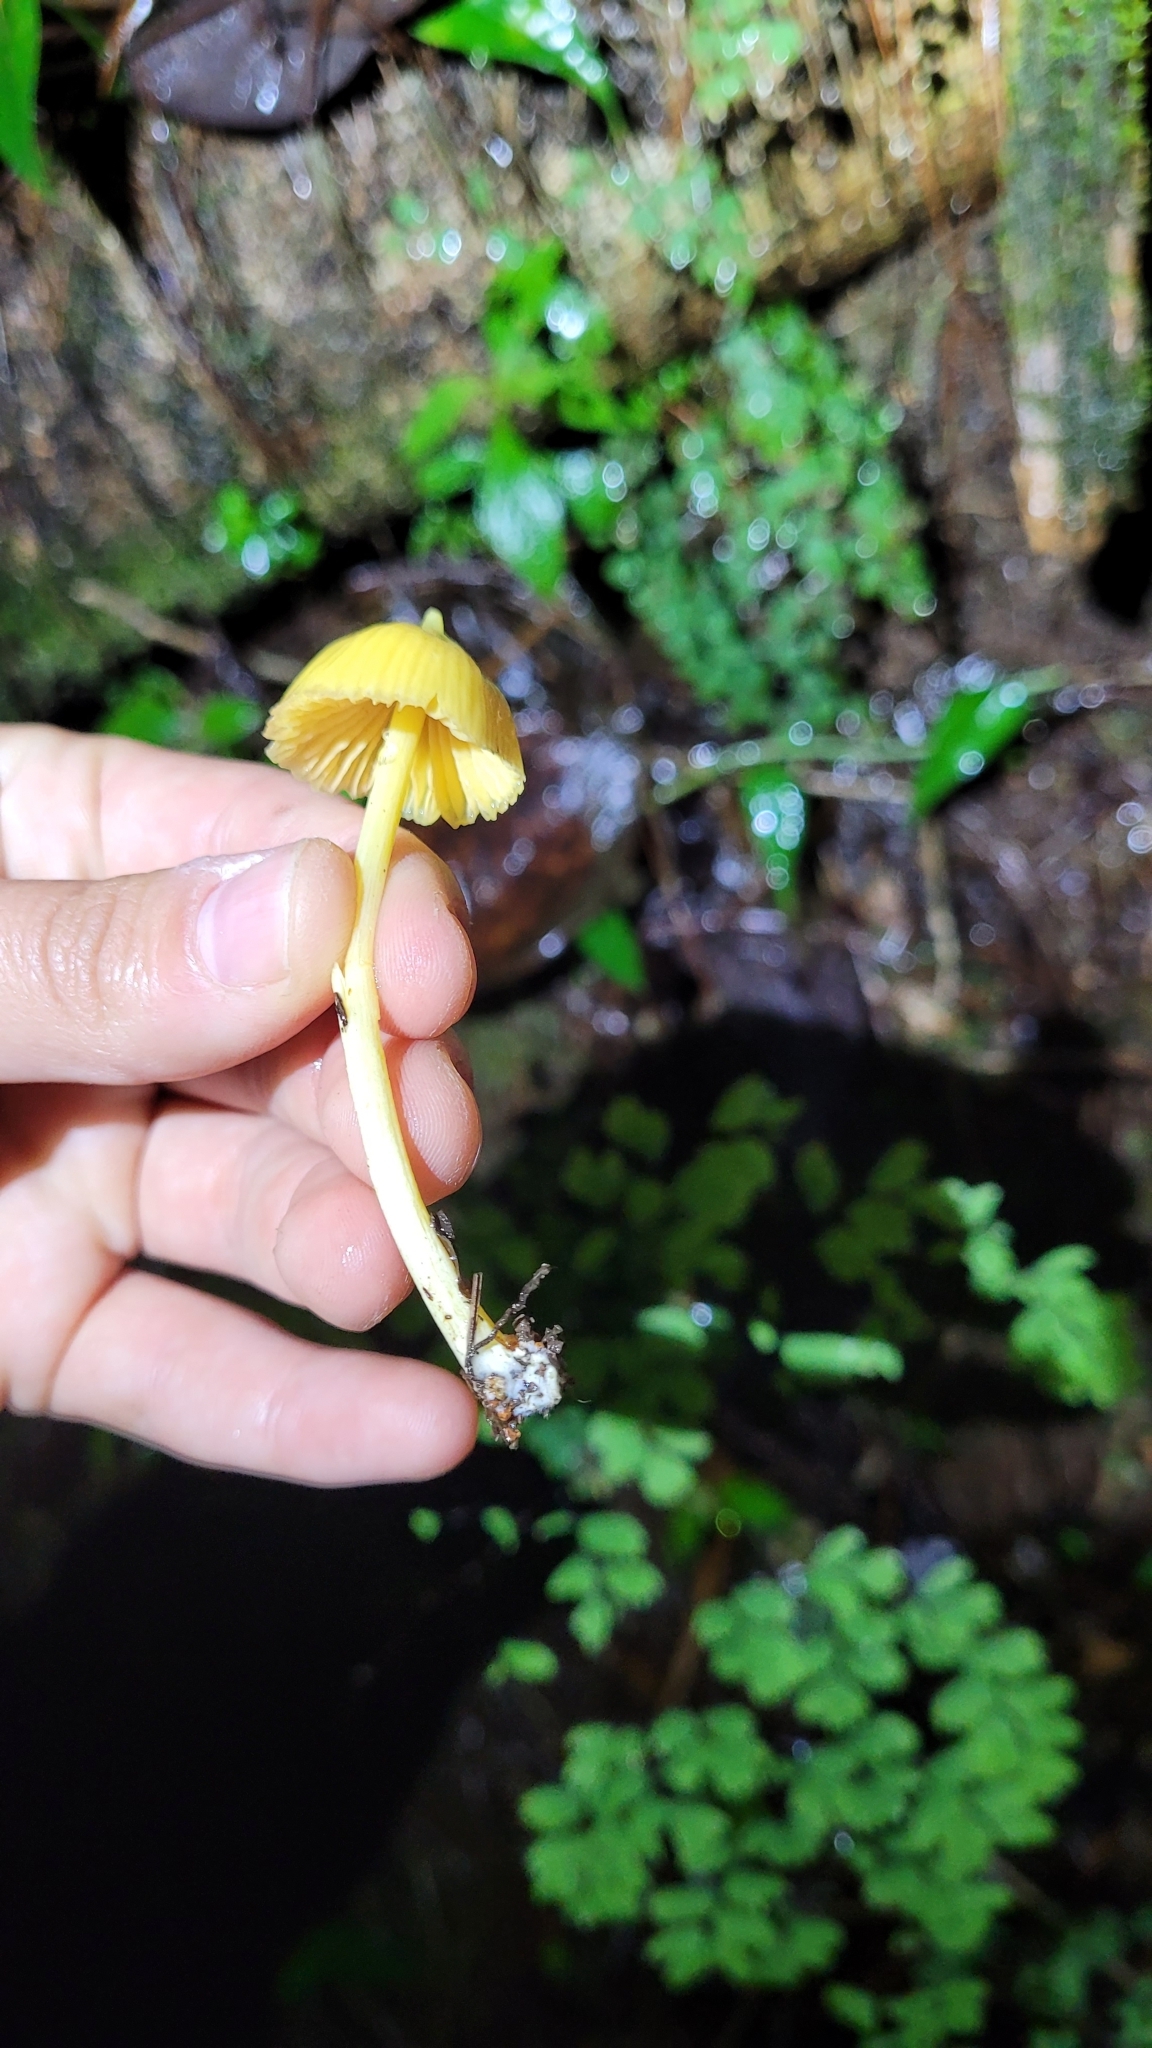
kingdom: Fungi
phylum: Basidiomycota
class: Agaricomycetes
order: Agaricales
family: Entolomataceae
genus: Entoloma
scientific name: Entoloma murrayi
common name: Yellow unicorn entoloma
